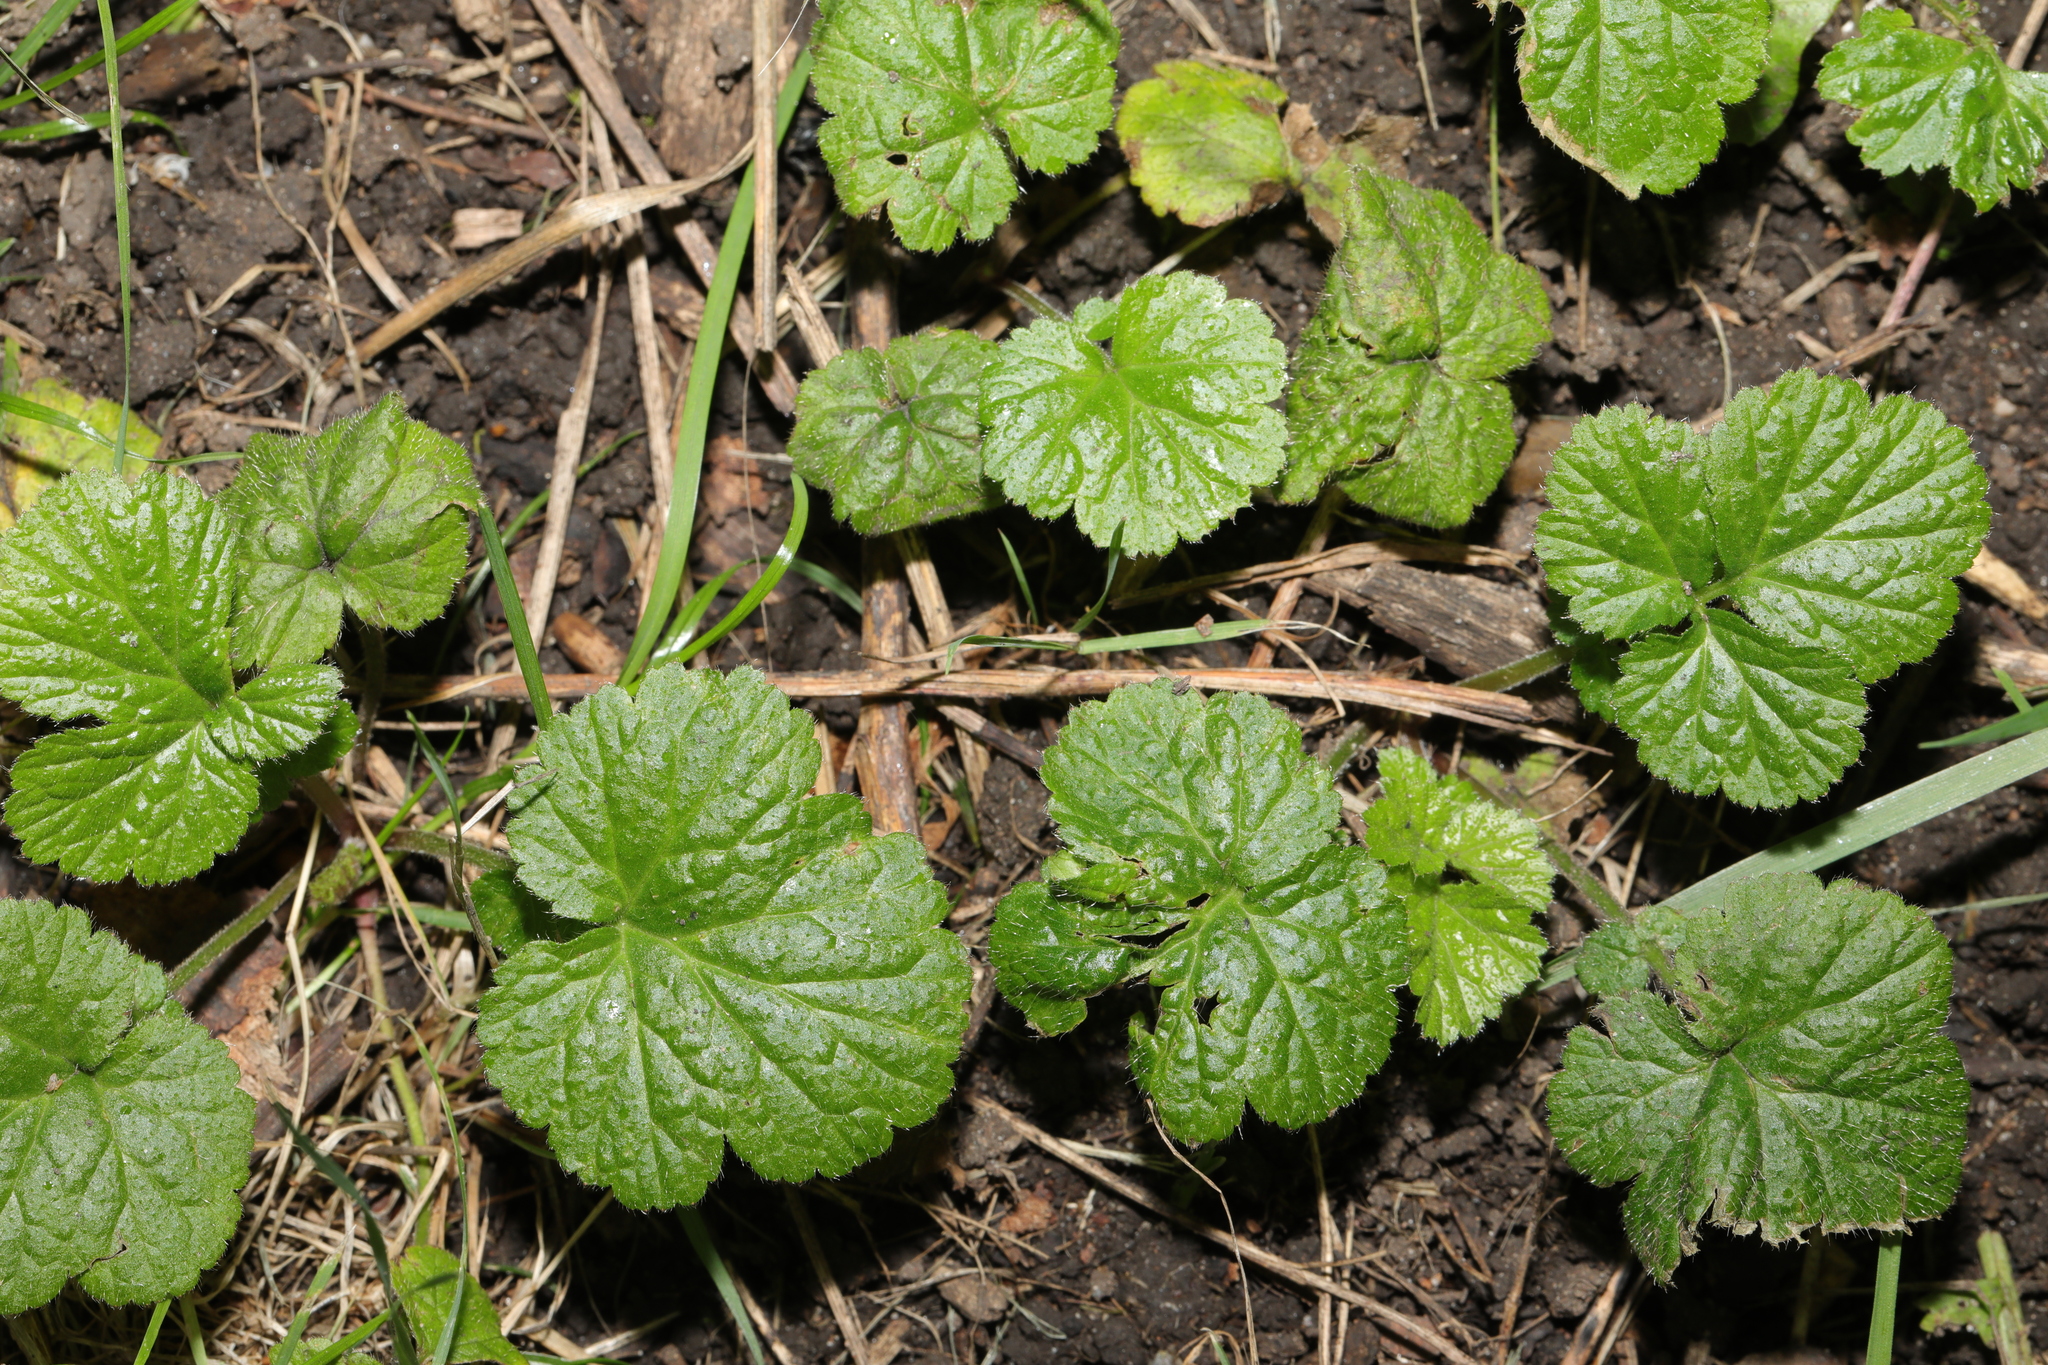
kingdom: Plantae
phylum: Tracheophyta
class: Magnoliopsida
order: Rosales
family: Rosaceae
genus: Geum
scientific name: Geum urbanum
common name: Wood avens
